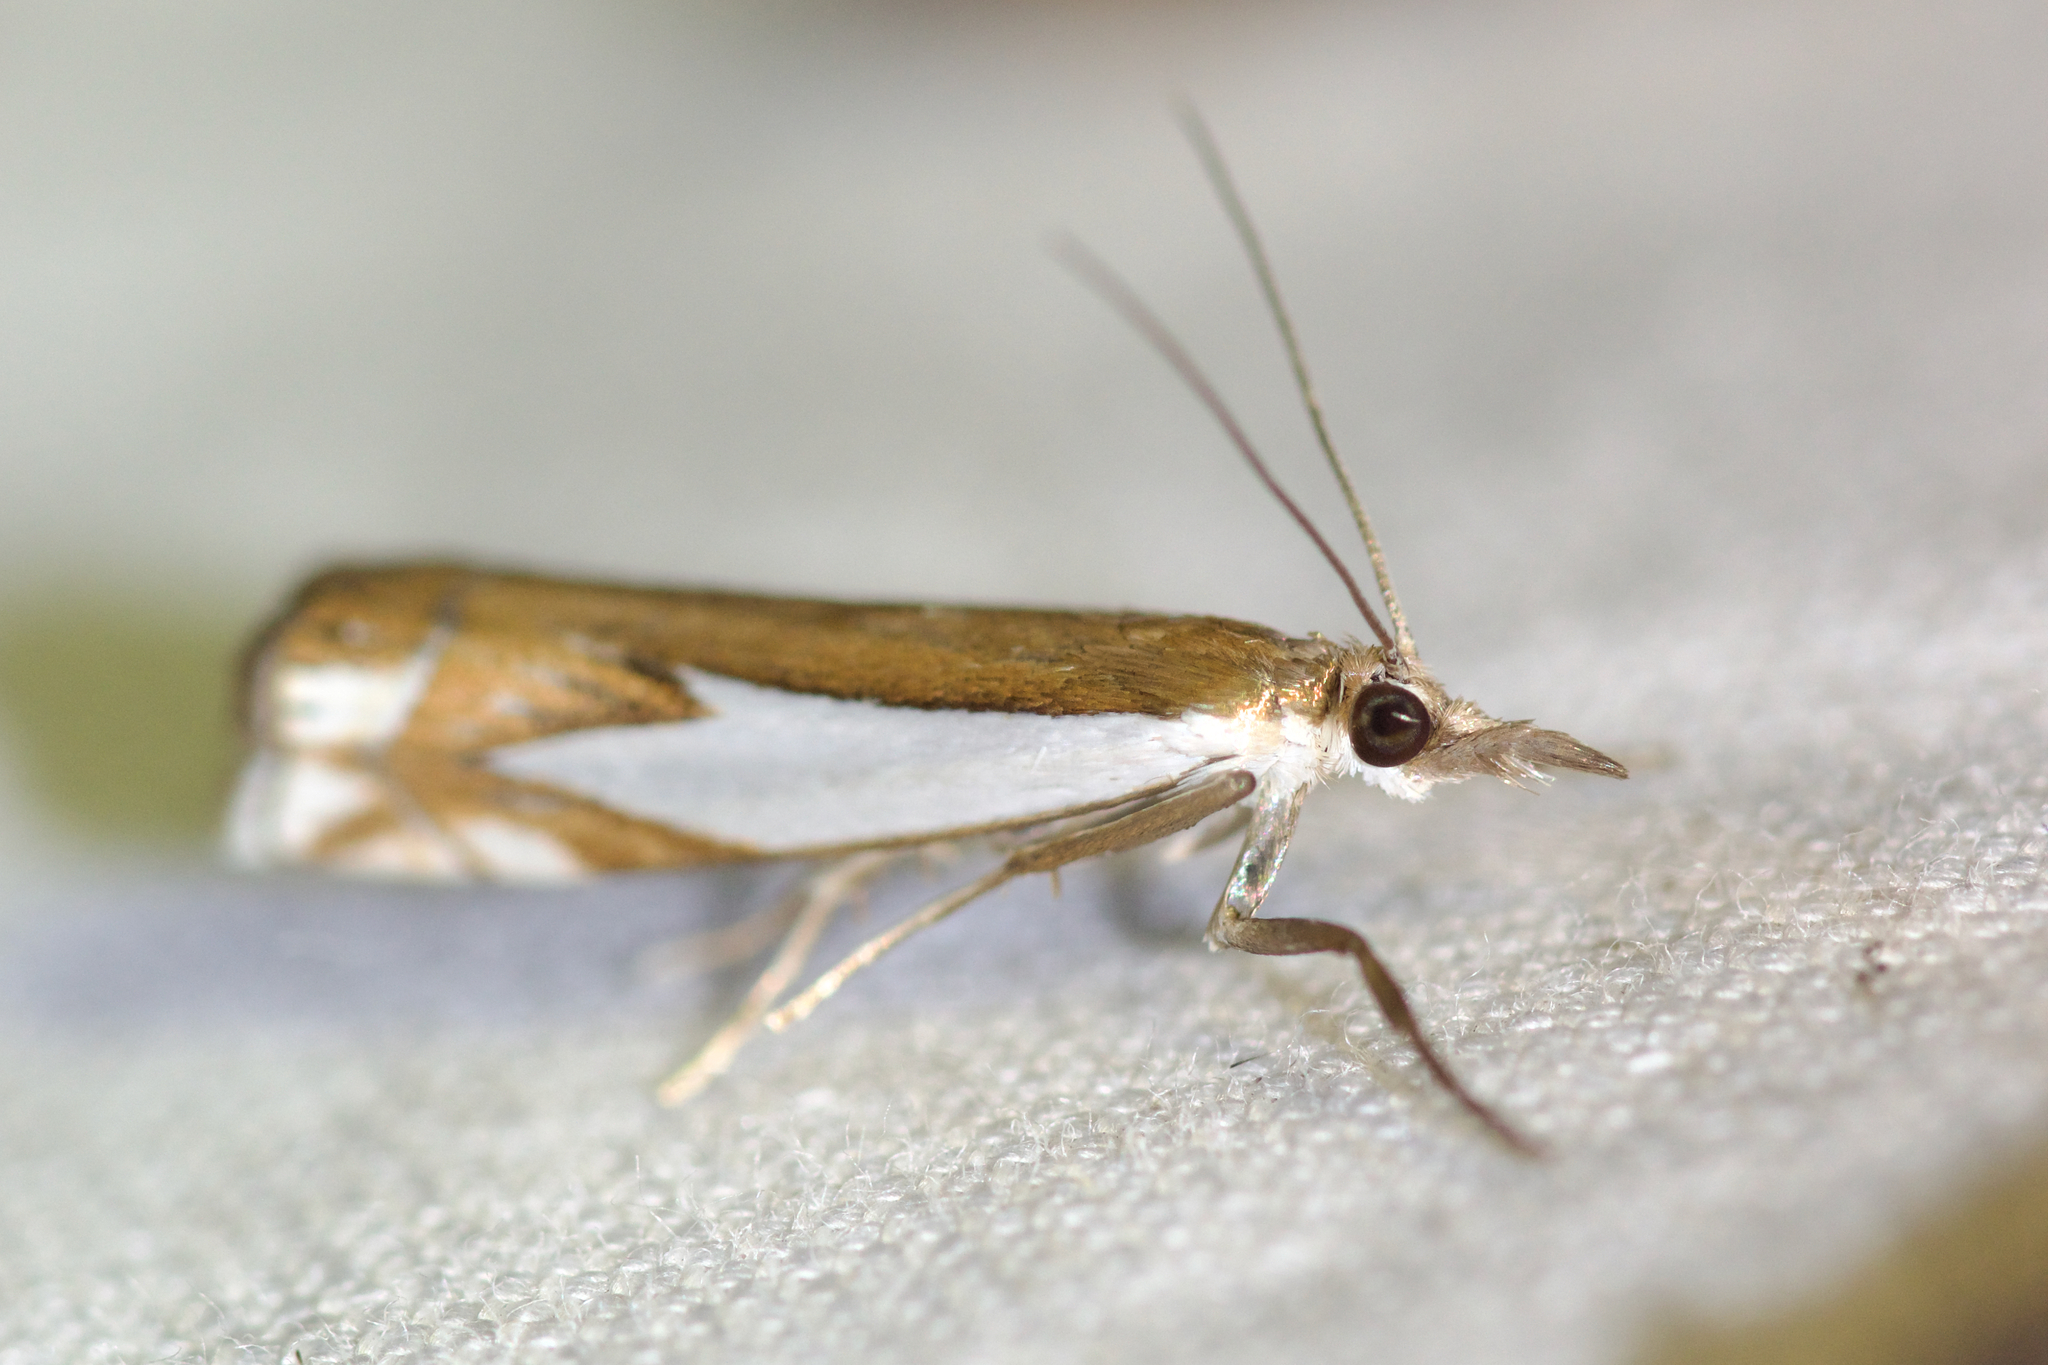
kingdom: Animalia
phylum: Arthropoda
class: Insecta
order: Lepidoptera
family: Crambidae
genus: Crambus
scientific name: Crambus bidens
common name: Forked grass-veneer
